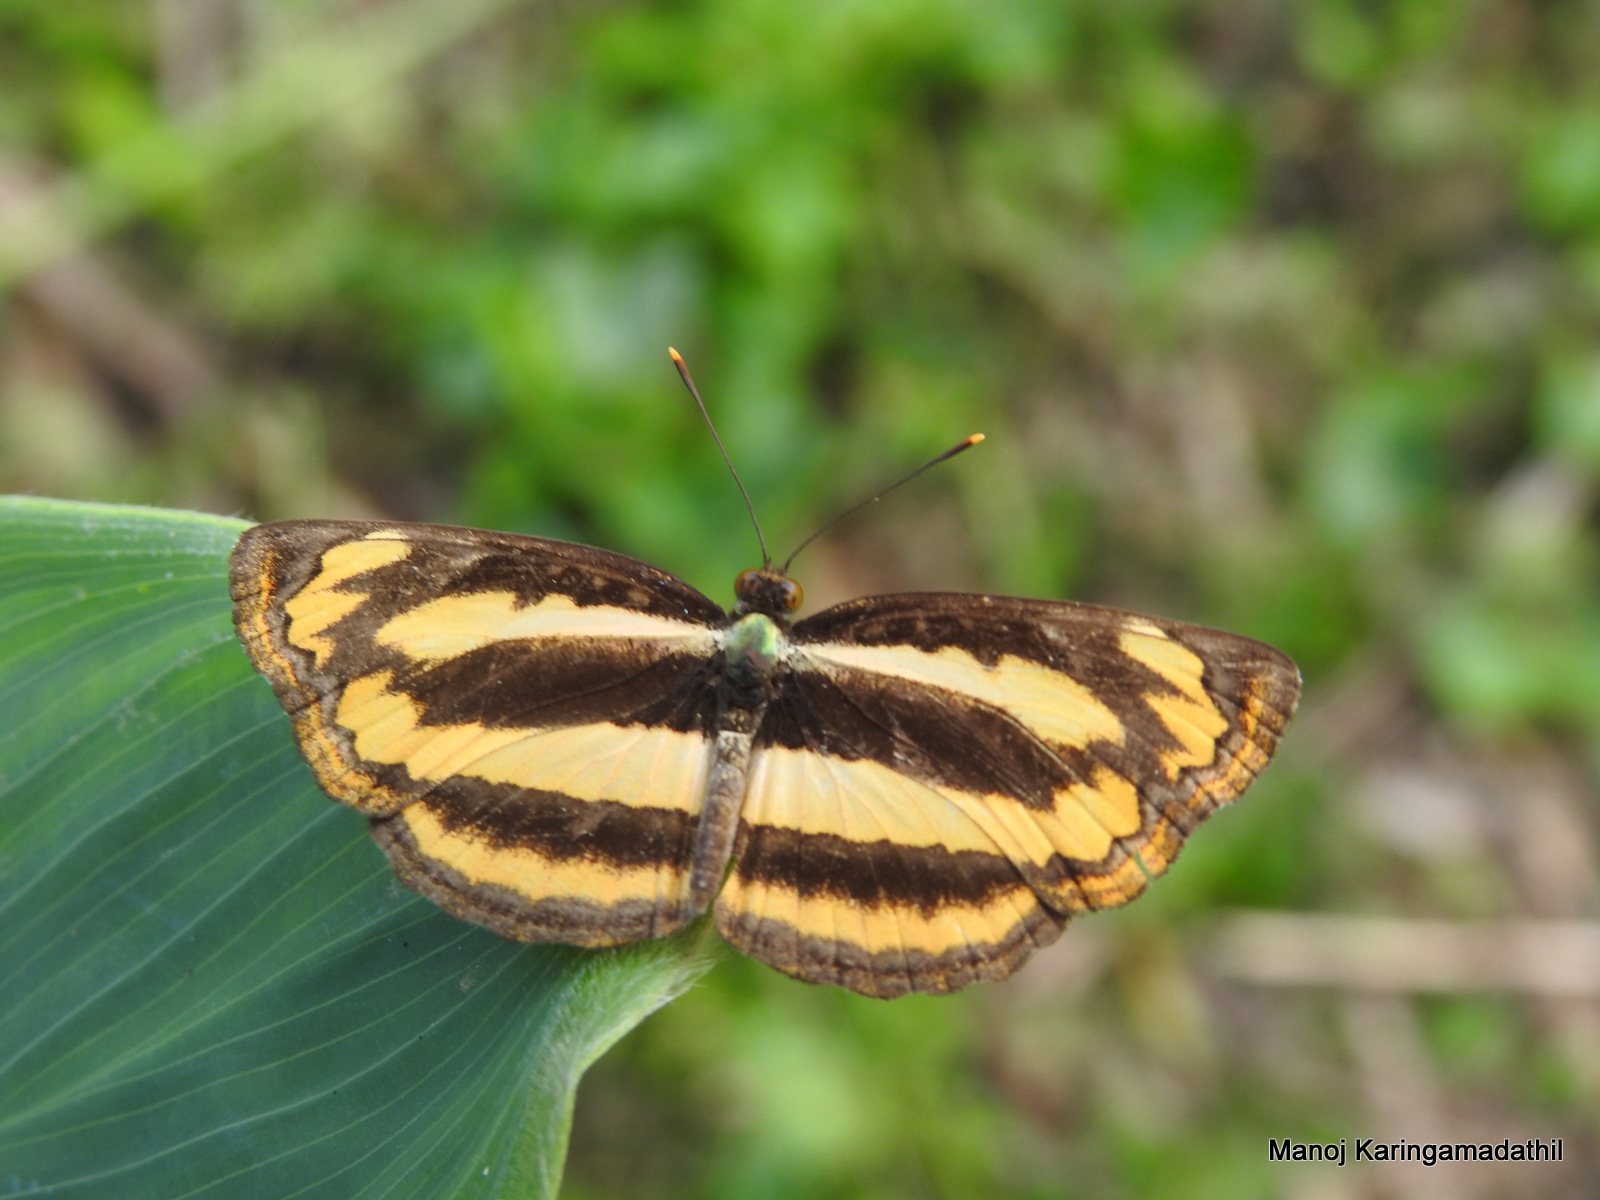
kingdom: Animalia
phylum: Arthropoda
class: Insecta
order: Lepidoptera
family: Nymphalidae
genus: Pantoporia
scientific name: Pantoporia hordonia
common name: Common lascar
